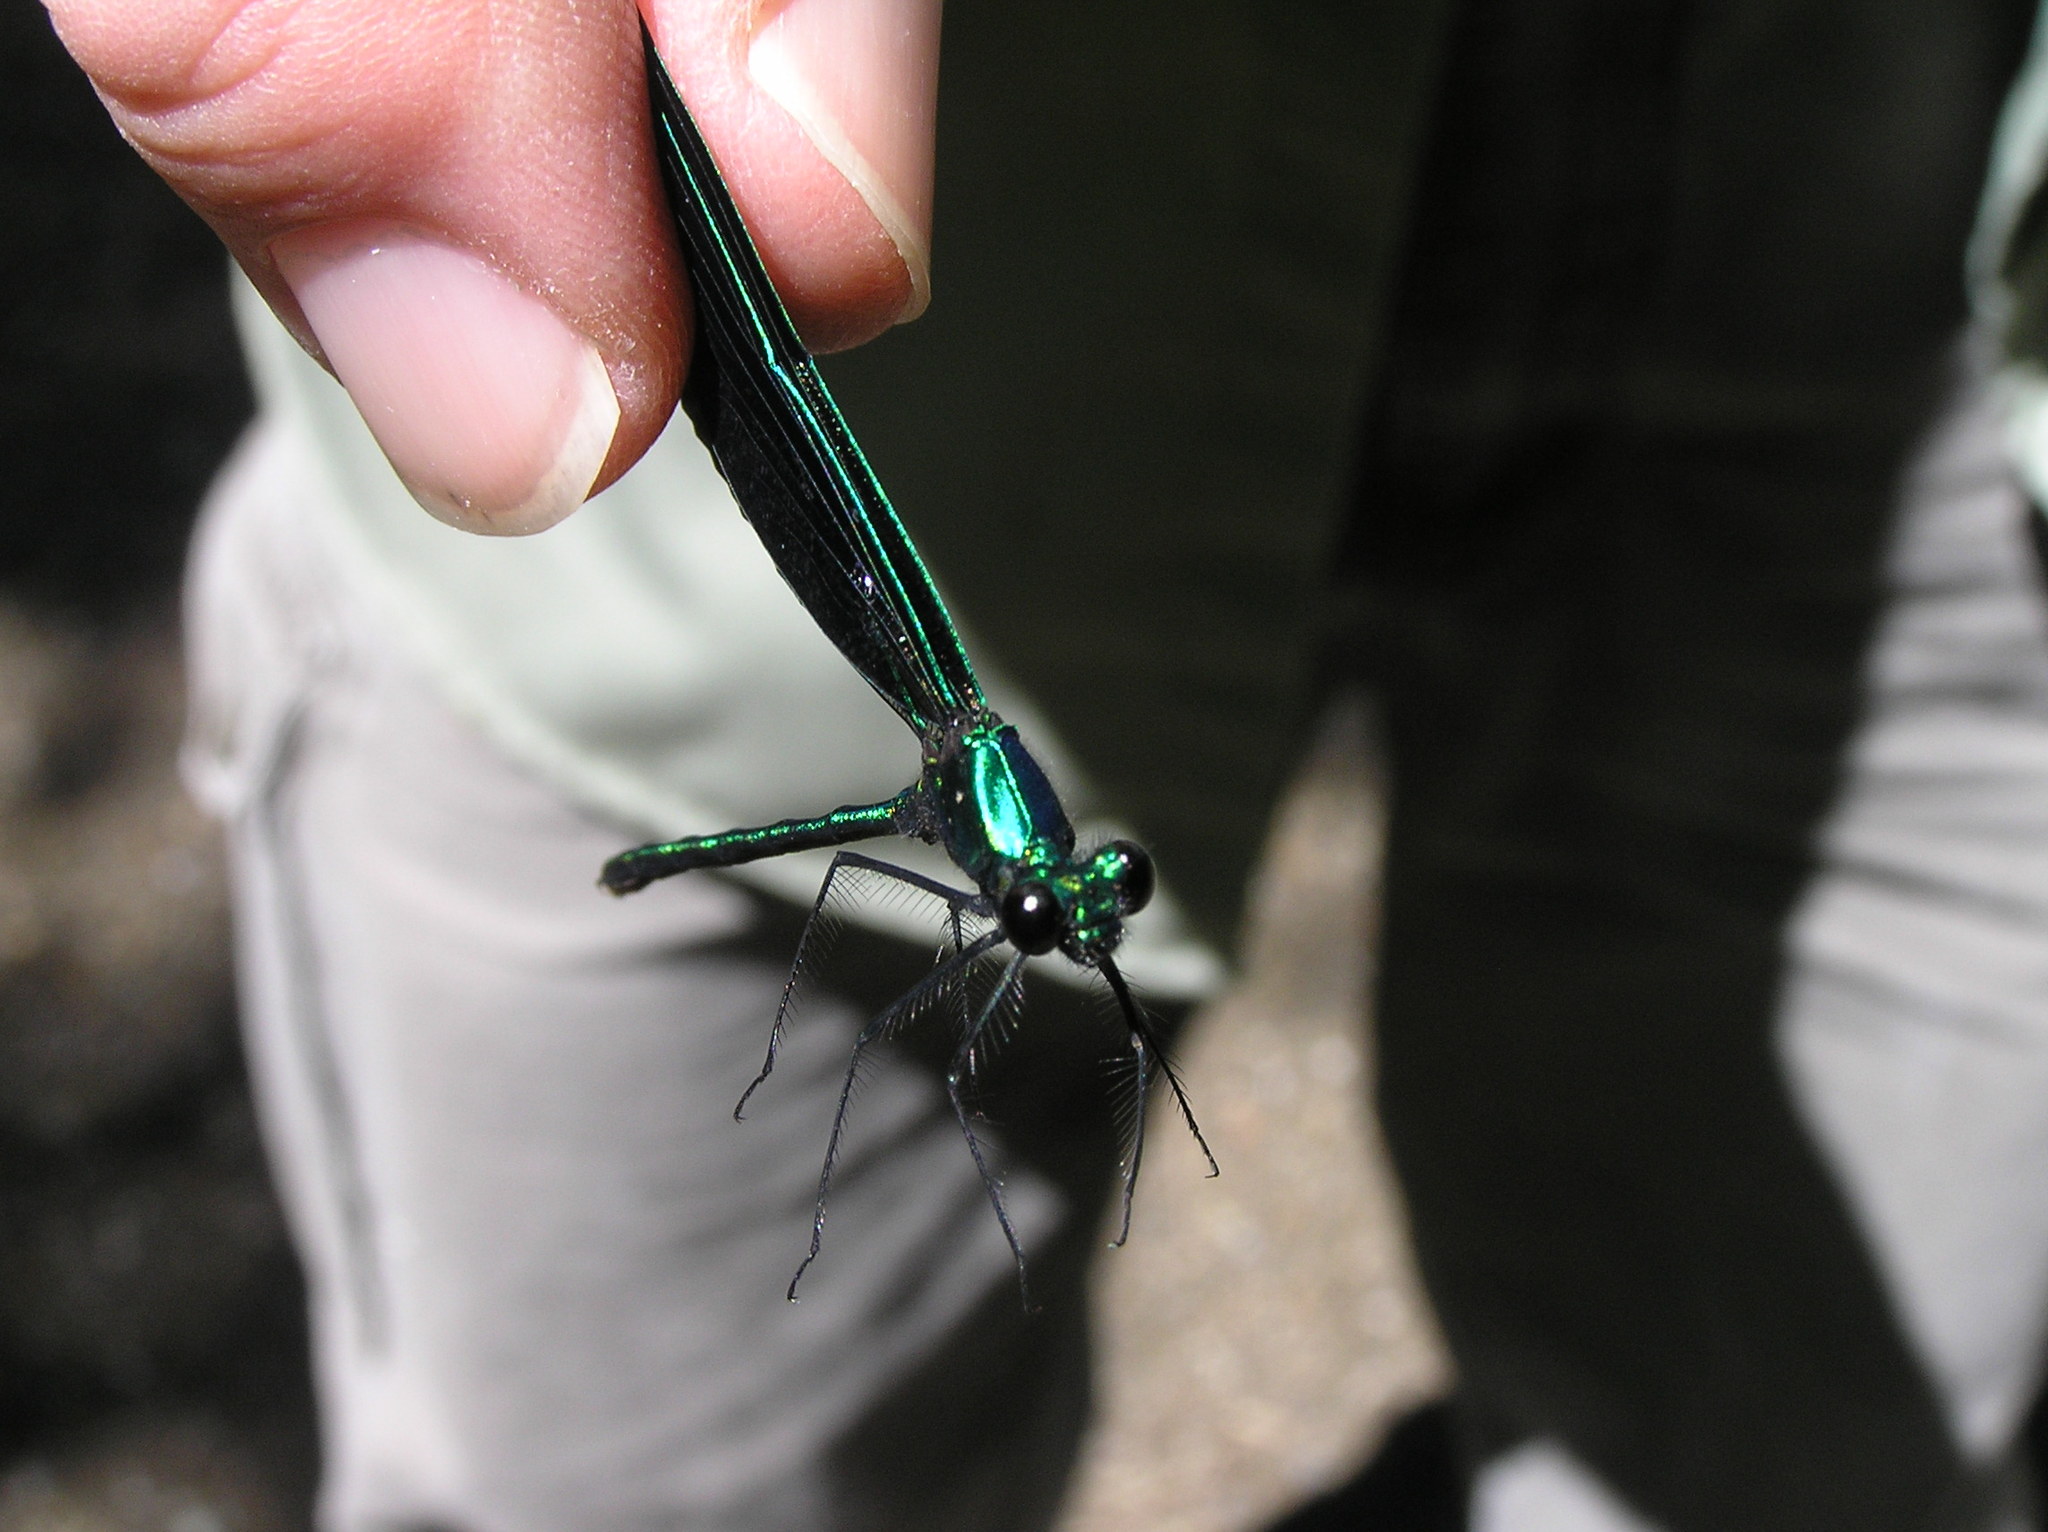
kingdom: Animalia
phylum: Arthropoda
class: Insecta
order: Odonata
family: Calopterygidae
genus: Calopteryx
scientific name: Calopteryx maculata
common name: Ebony jewelwing
